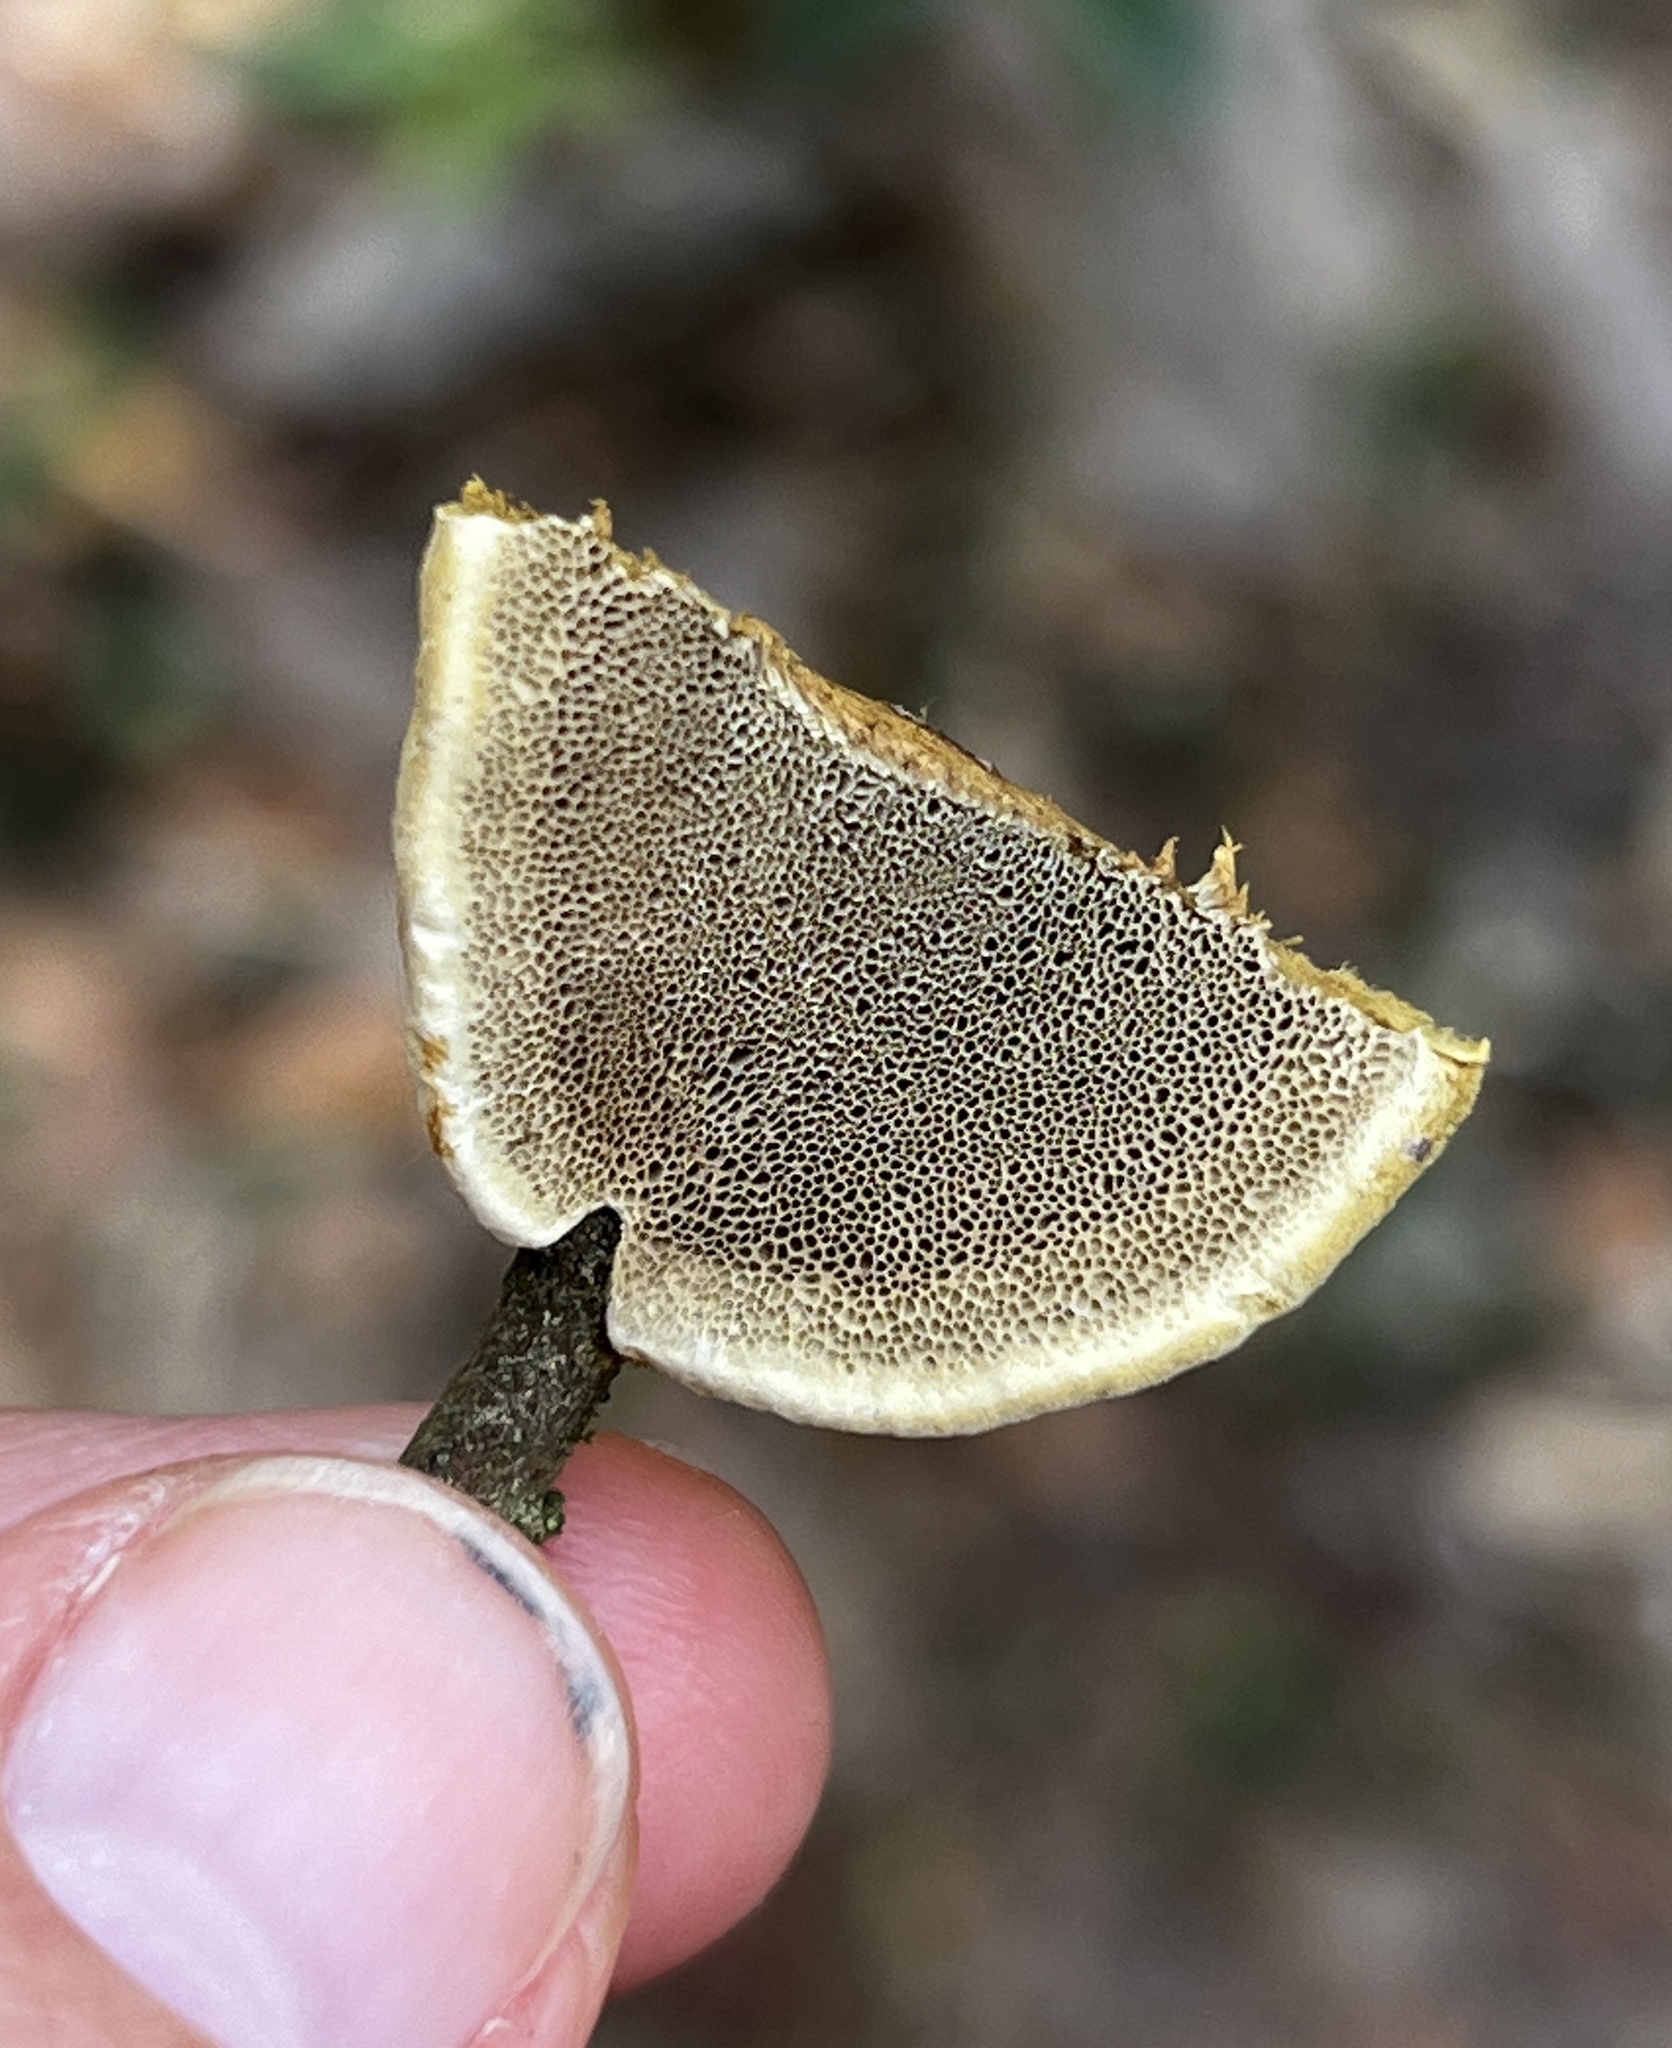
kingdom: Fungi
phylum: Basidiomycota
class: Agaricomycetes
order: Hymenochaetales
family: Hymenochaetaceae
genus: Phylloporia
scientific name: Phylloporia amplectens
